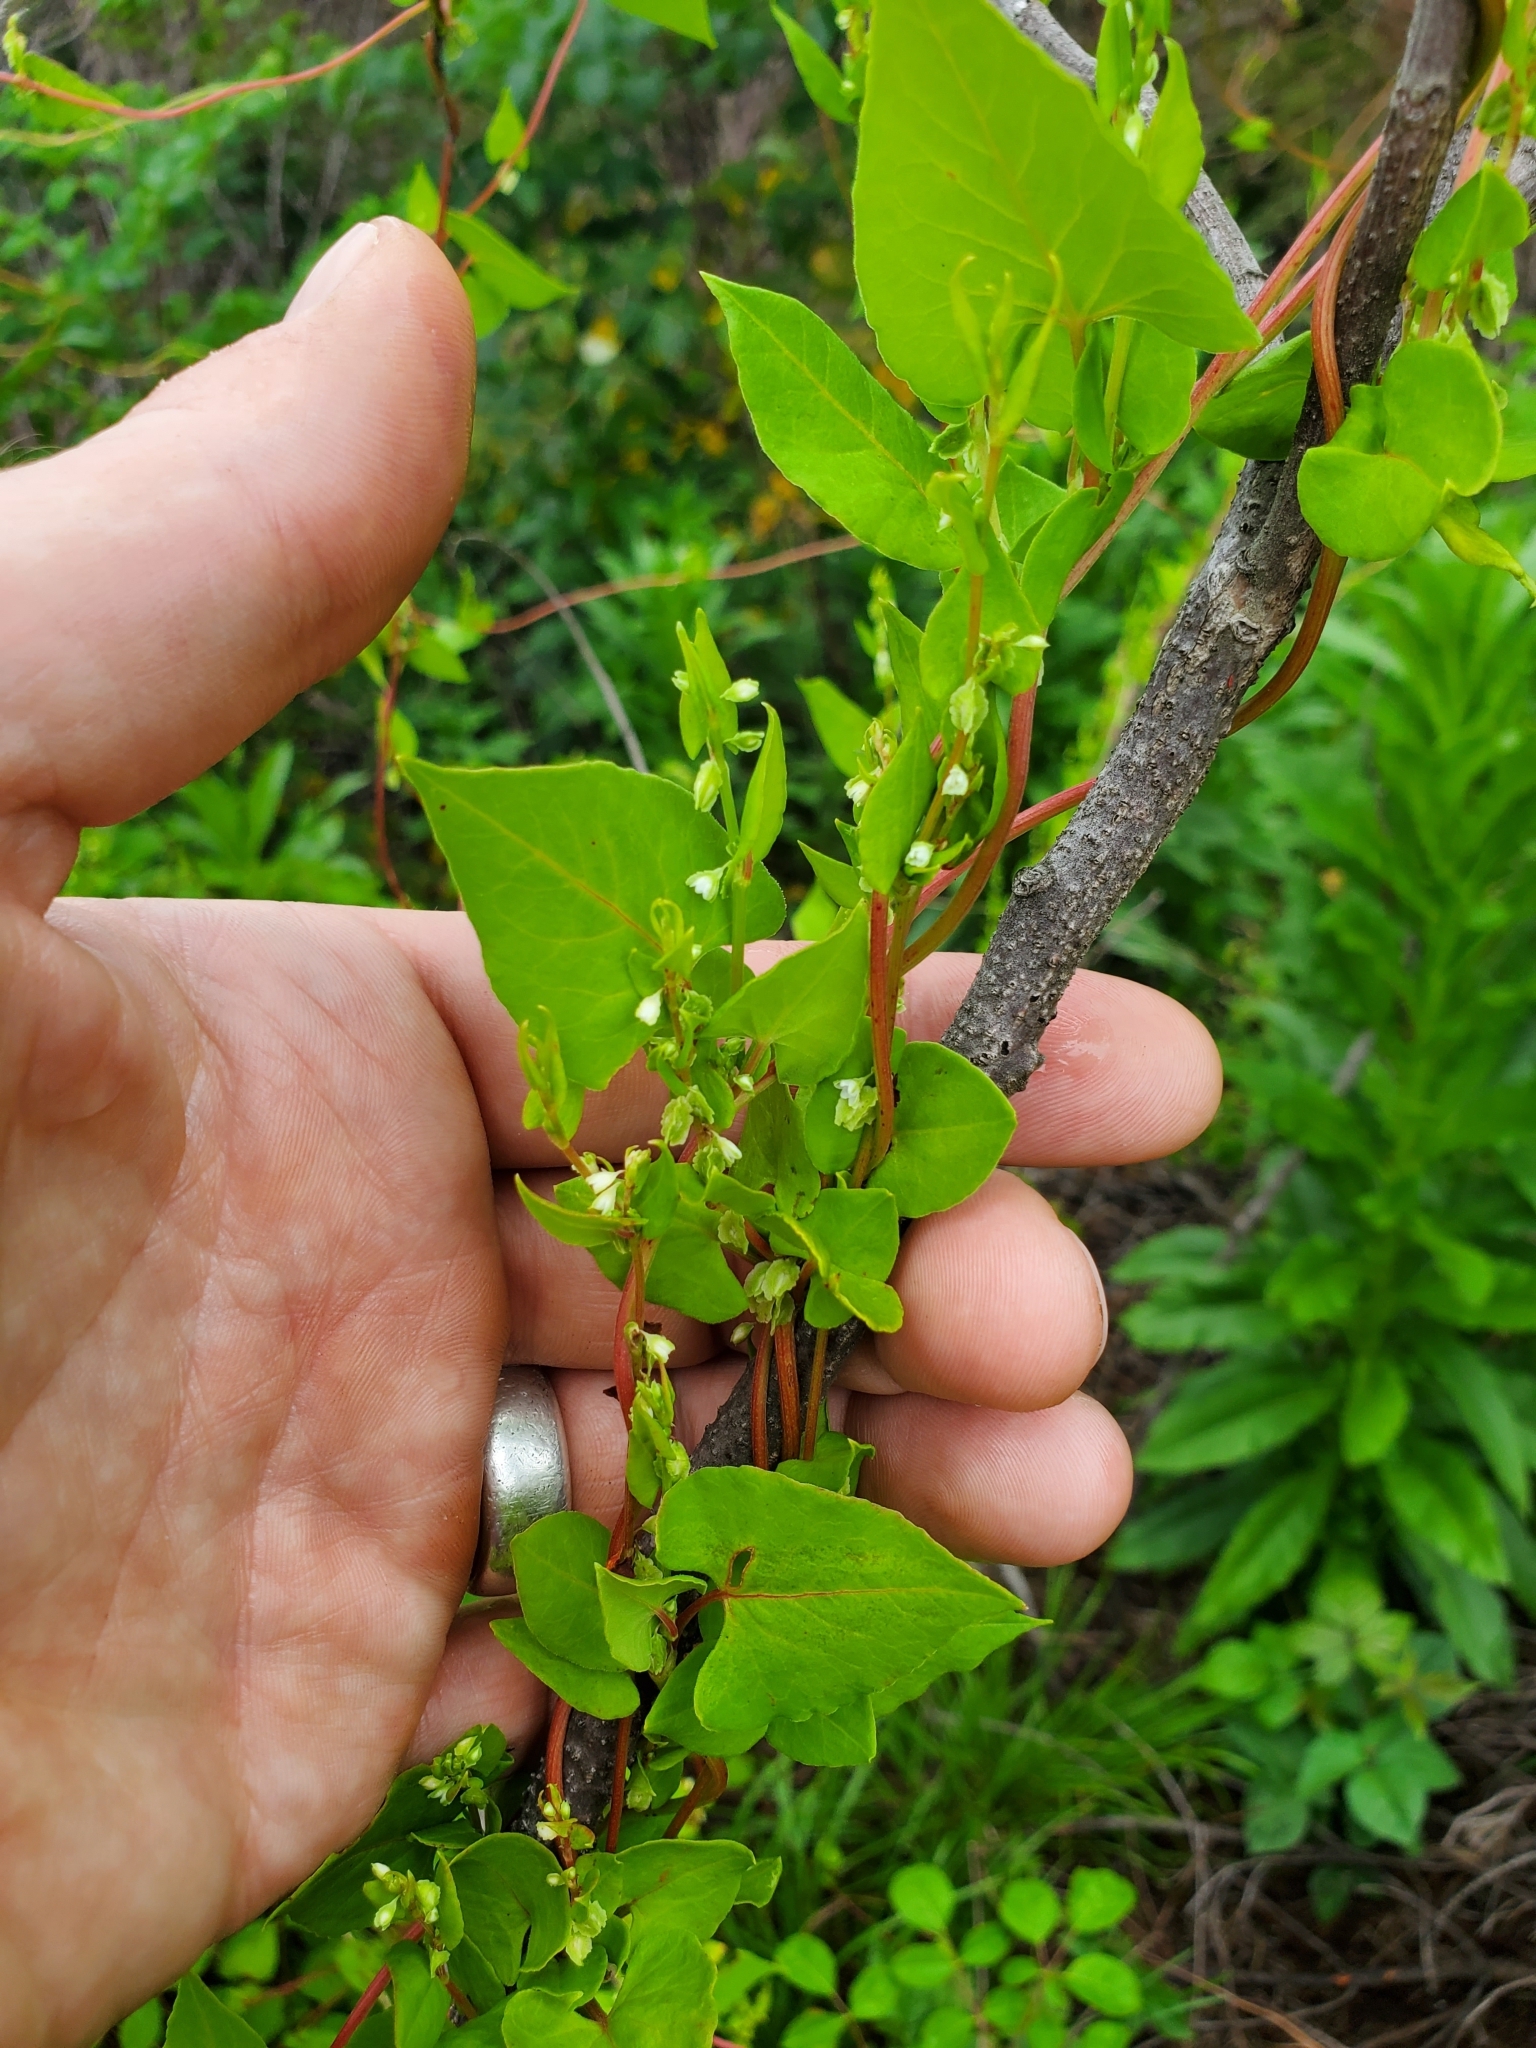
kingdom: Plantae
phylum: Tracheophyta
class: Magnoliopsida
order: Caryophyllales
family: Polygonaceae
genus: Fallopia
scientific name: Fallopia scandens
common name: Climbing false buckwheat
